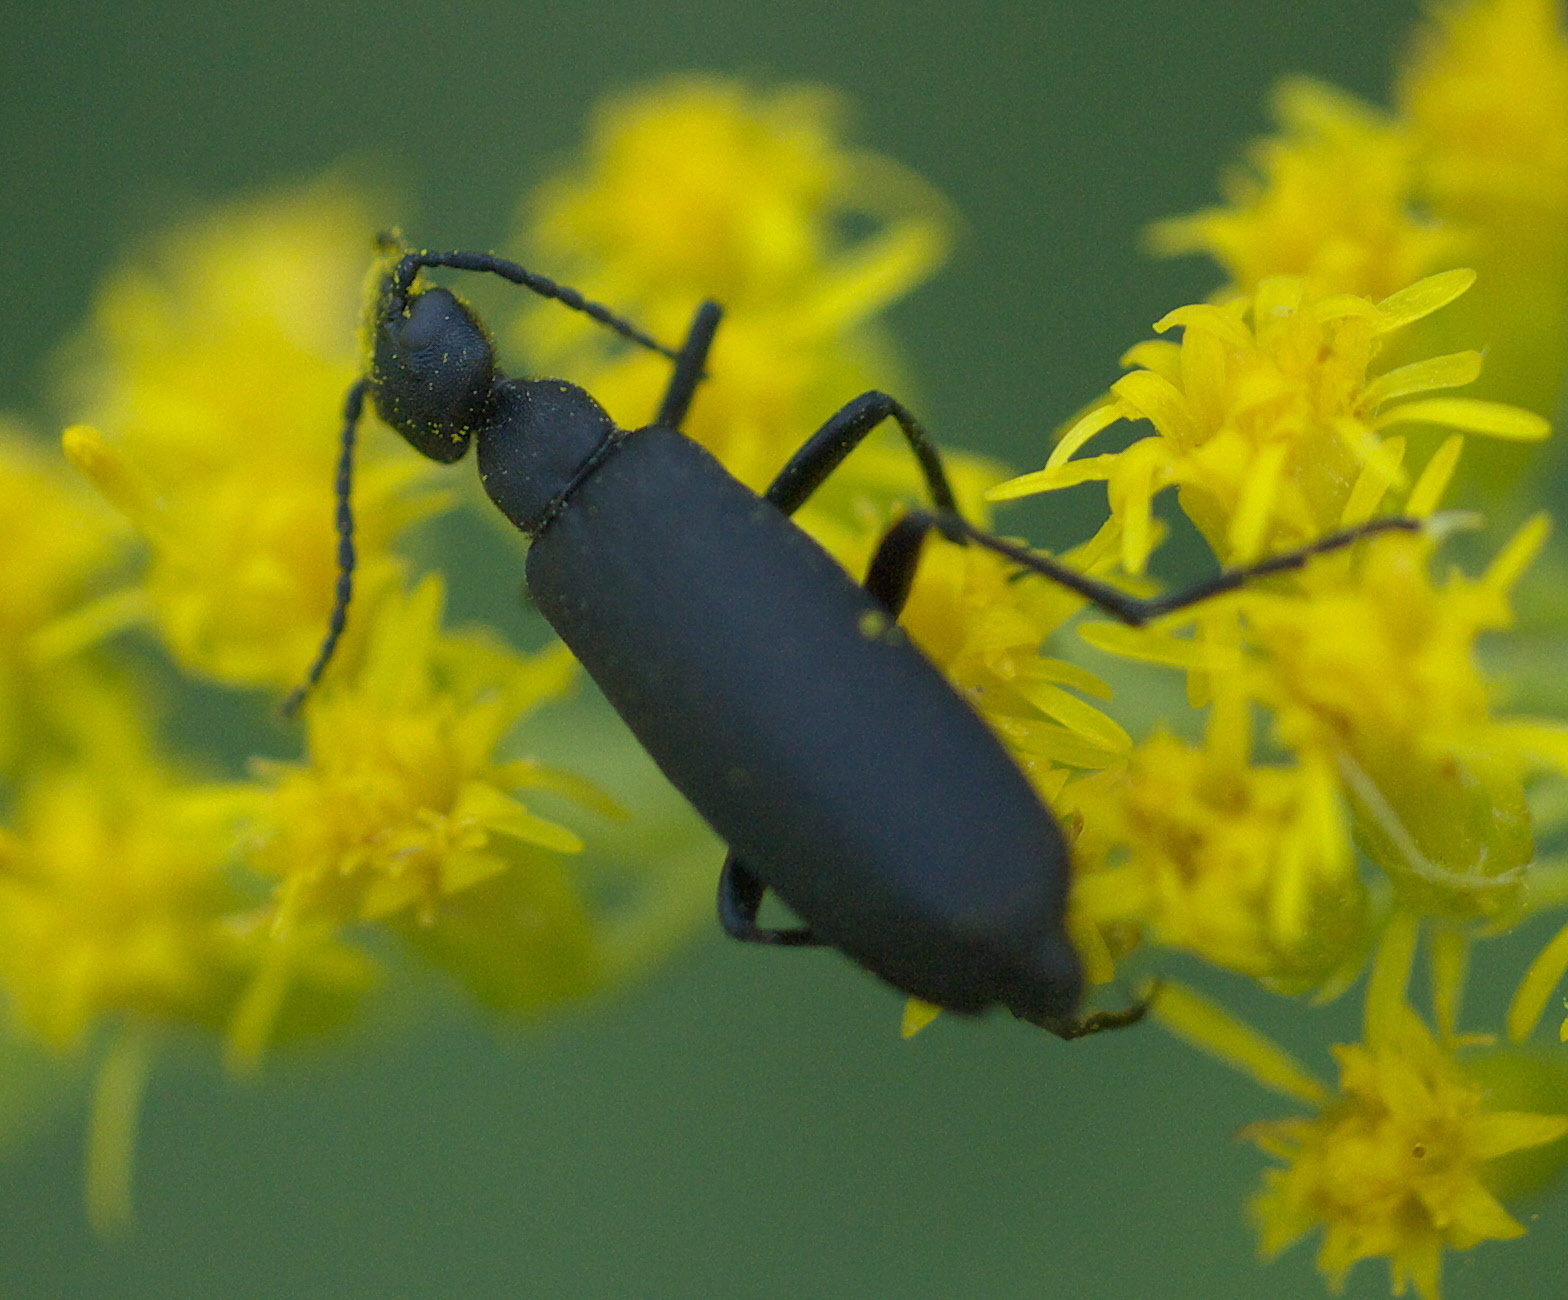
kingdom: Animalia
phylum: Arthropoda
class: Insecta
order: Coleoptera
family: Meloidae
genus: Epicauta
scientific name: Epicauta pensylvanica
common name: Black blister beetle
